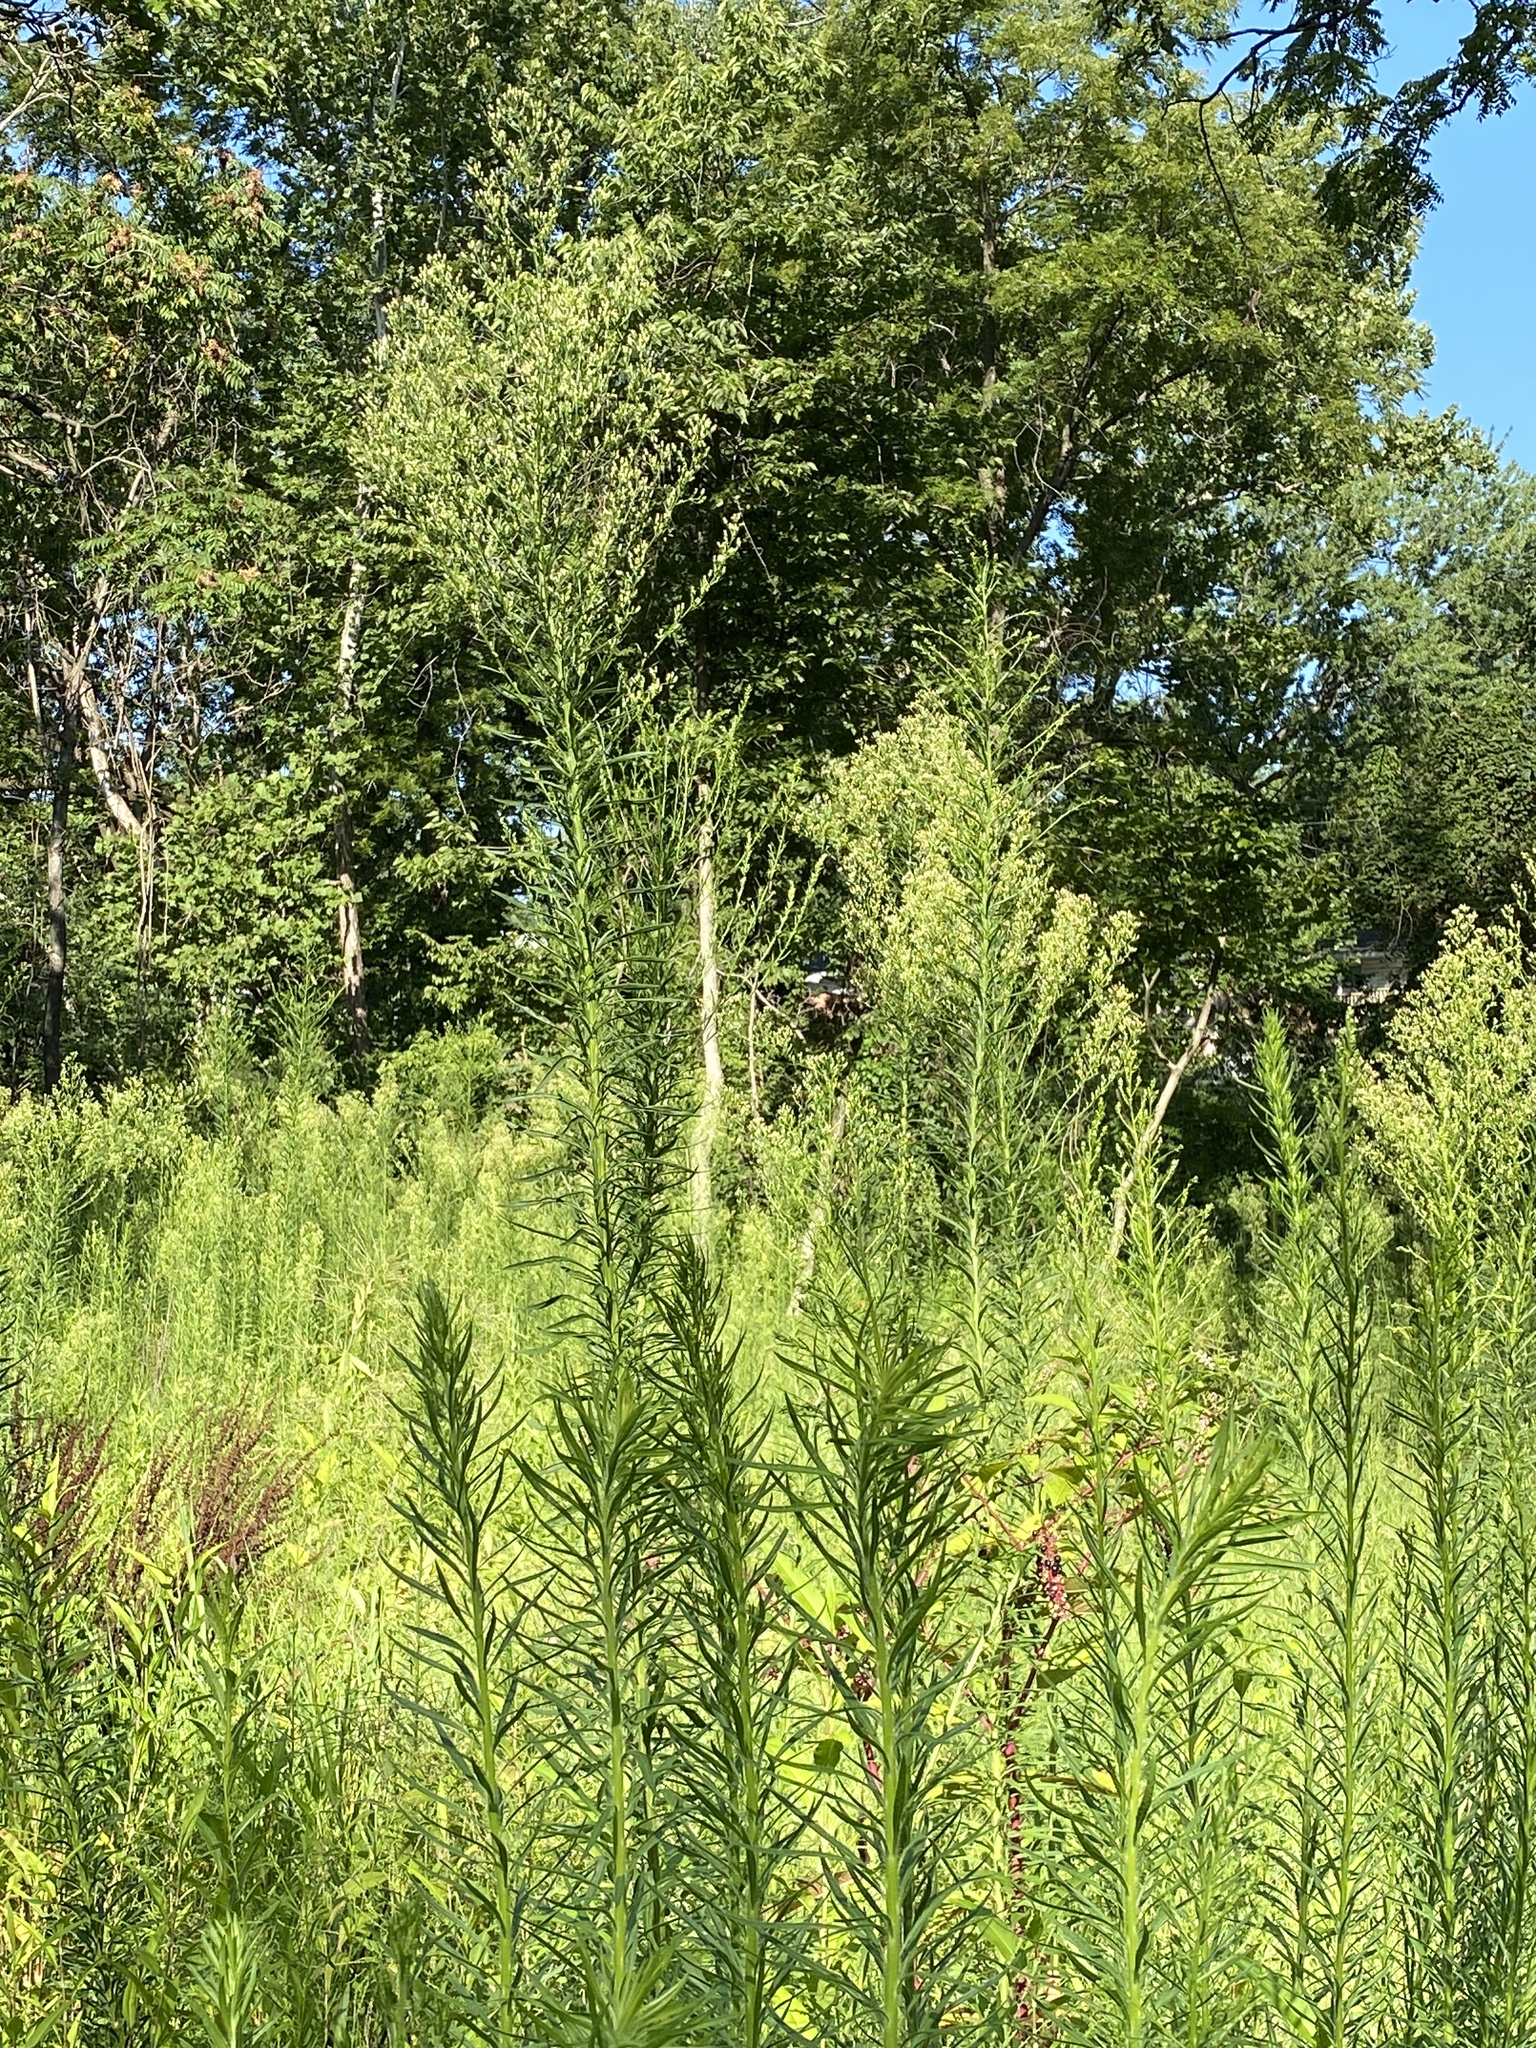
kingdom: Plantae
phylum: Tracheophyta
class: Magnoliopsida
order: Asterales
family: Asteraceae
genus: Erigeron
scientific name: Erigeron canadensis
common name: Canadian fleabane
